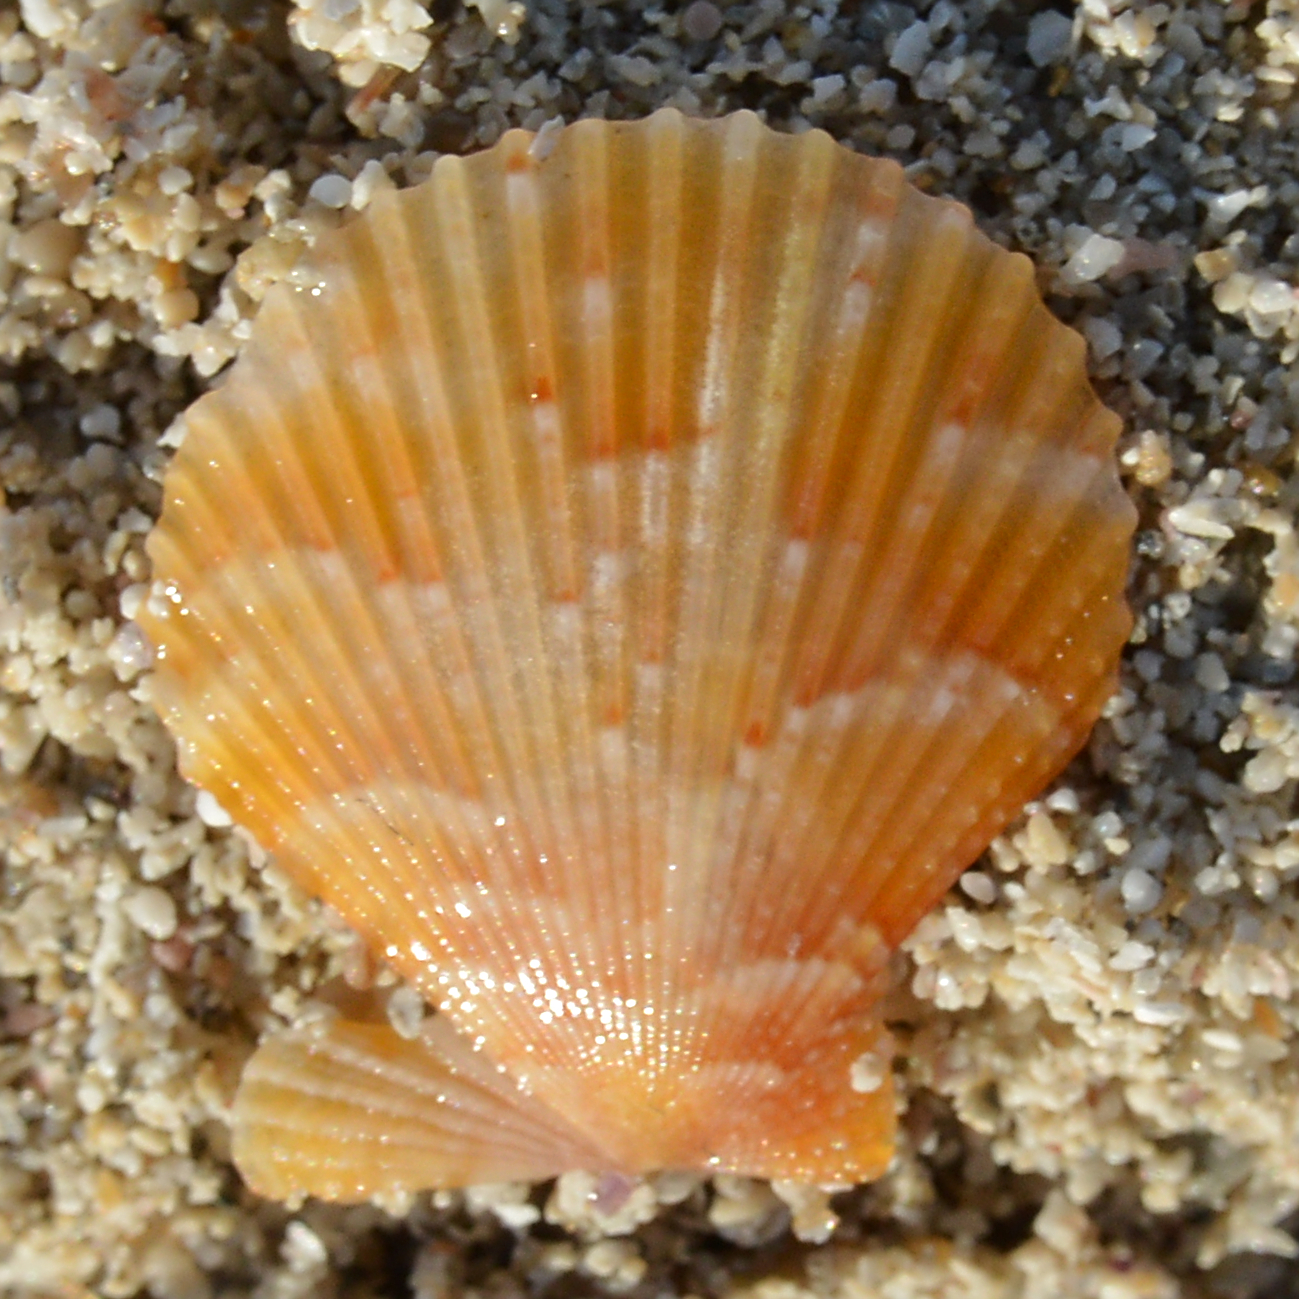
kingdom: Animalia
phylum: Mollusca
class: Bivalvia
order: Pectinida
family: Pectinidae
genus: Mimachlamys
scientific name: Mimachlamys varia
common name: Variegated scallop
